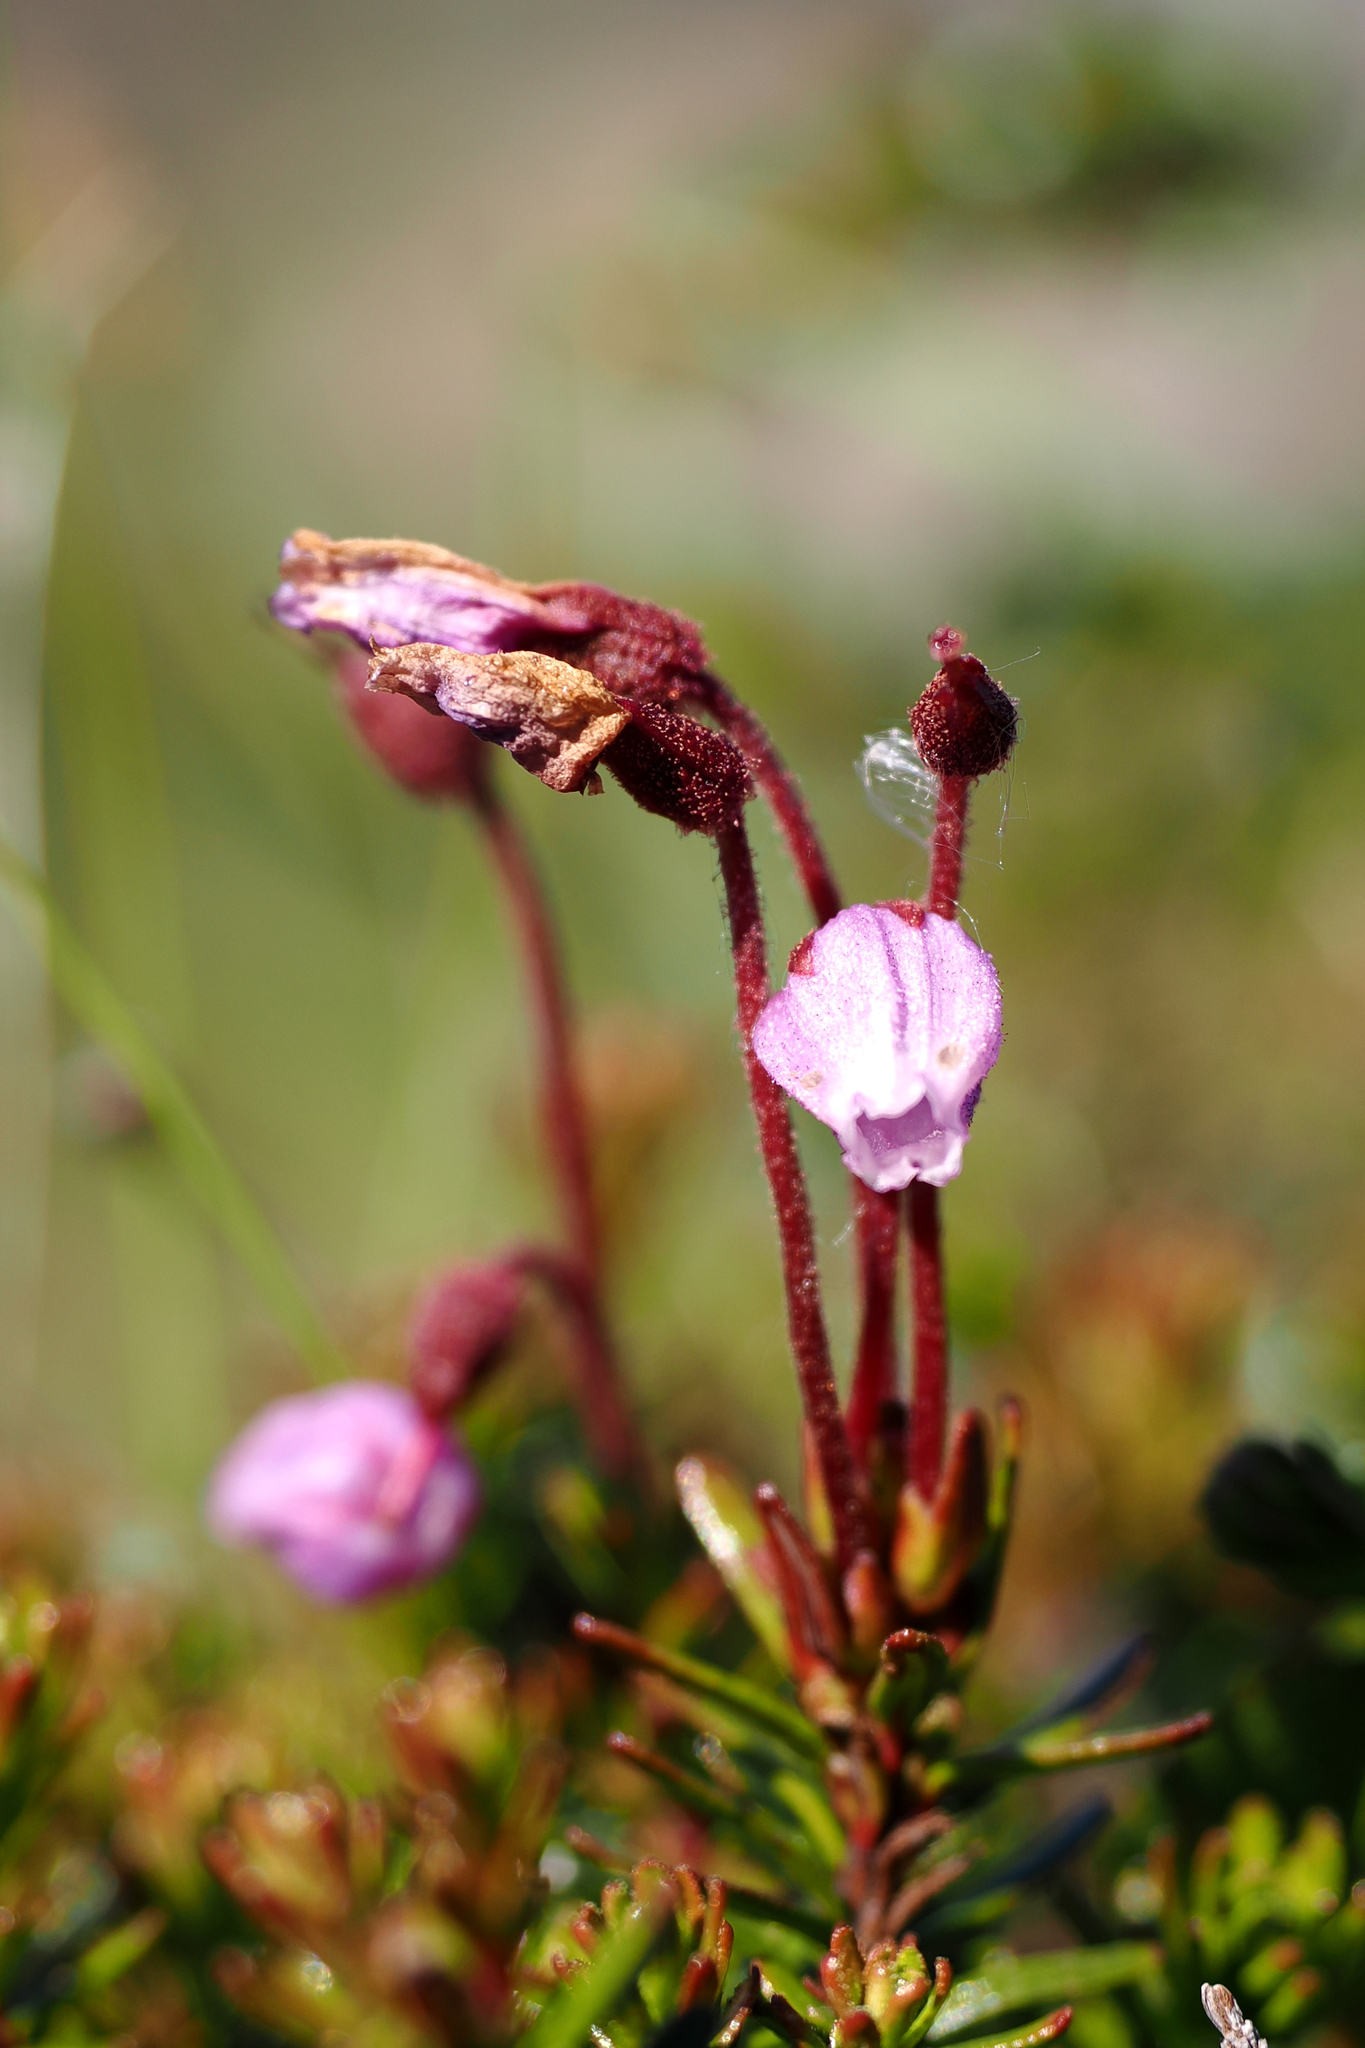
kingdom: Plantae
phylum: Tracheophyta
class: Magnoliopsida
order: Ericales
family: Ericaceae
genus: Phyllodoce
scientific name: Phyllodoce caerulea
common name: Blue heath
